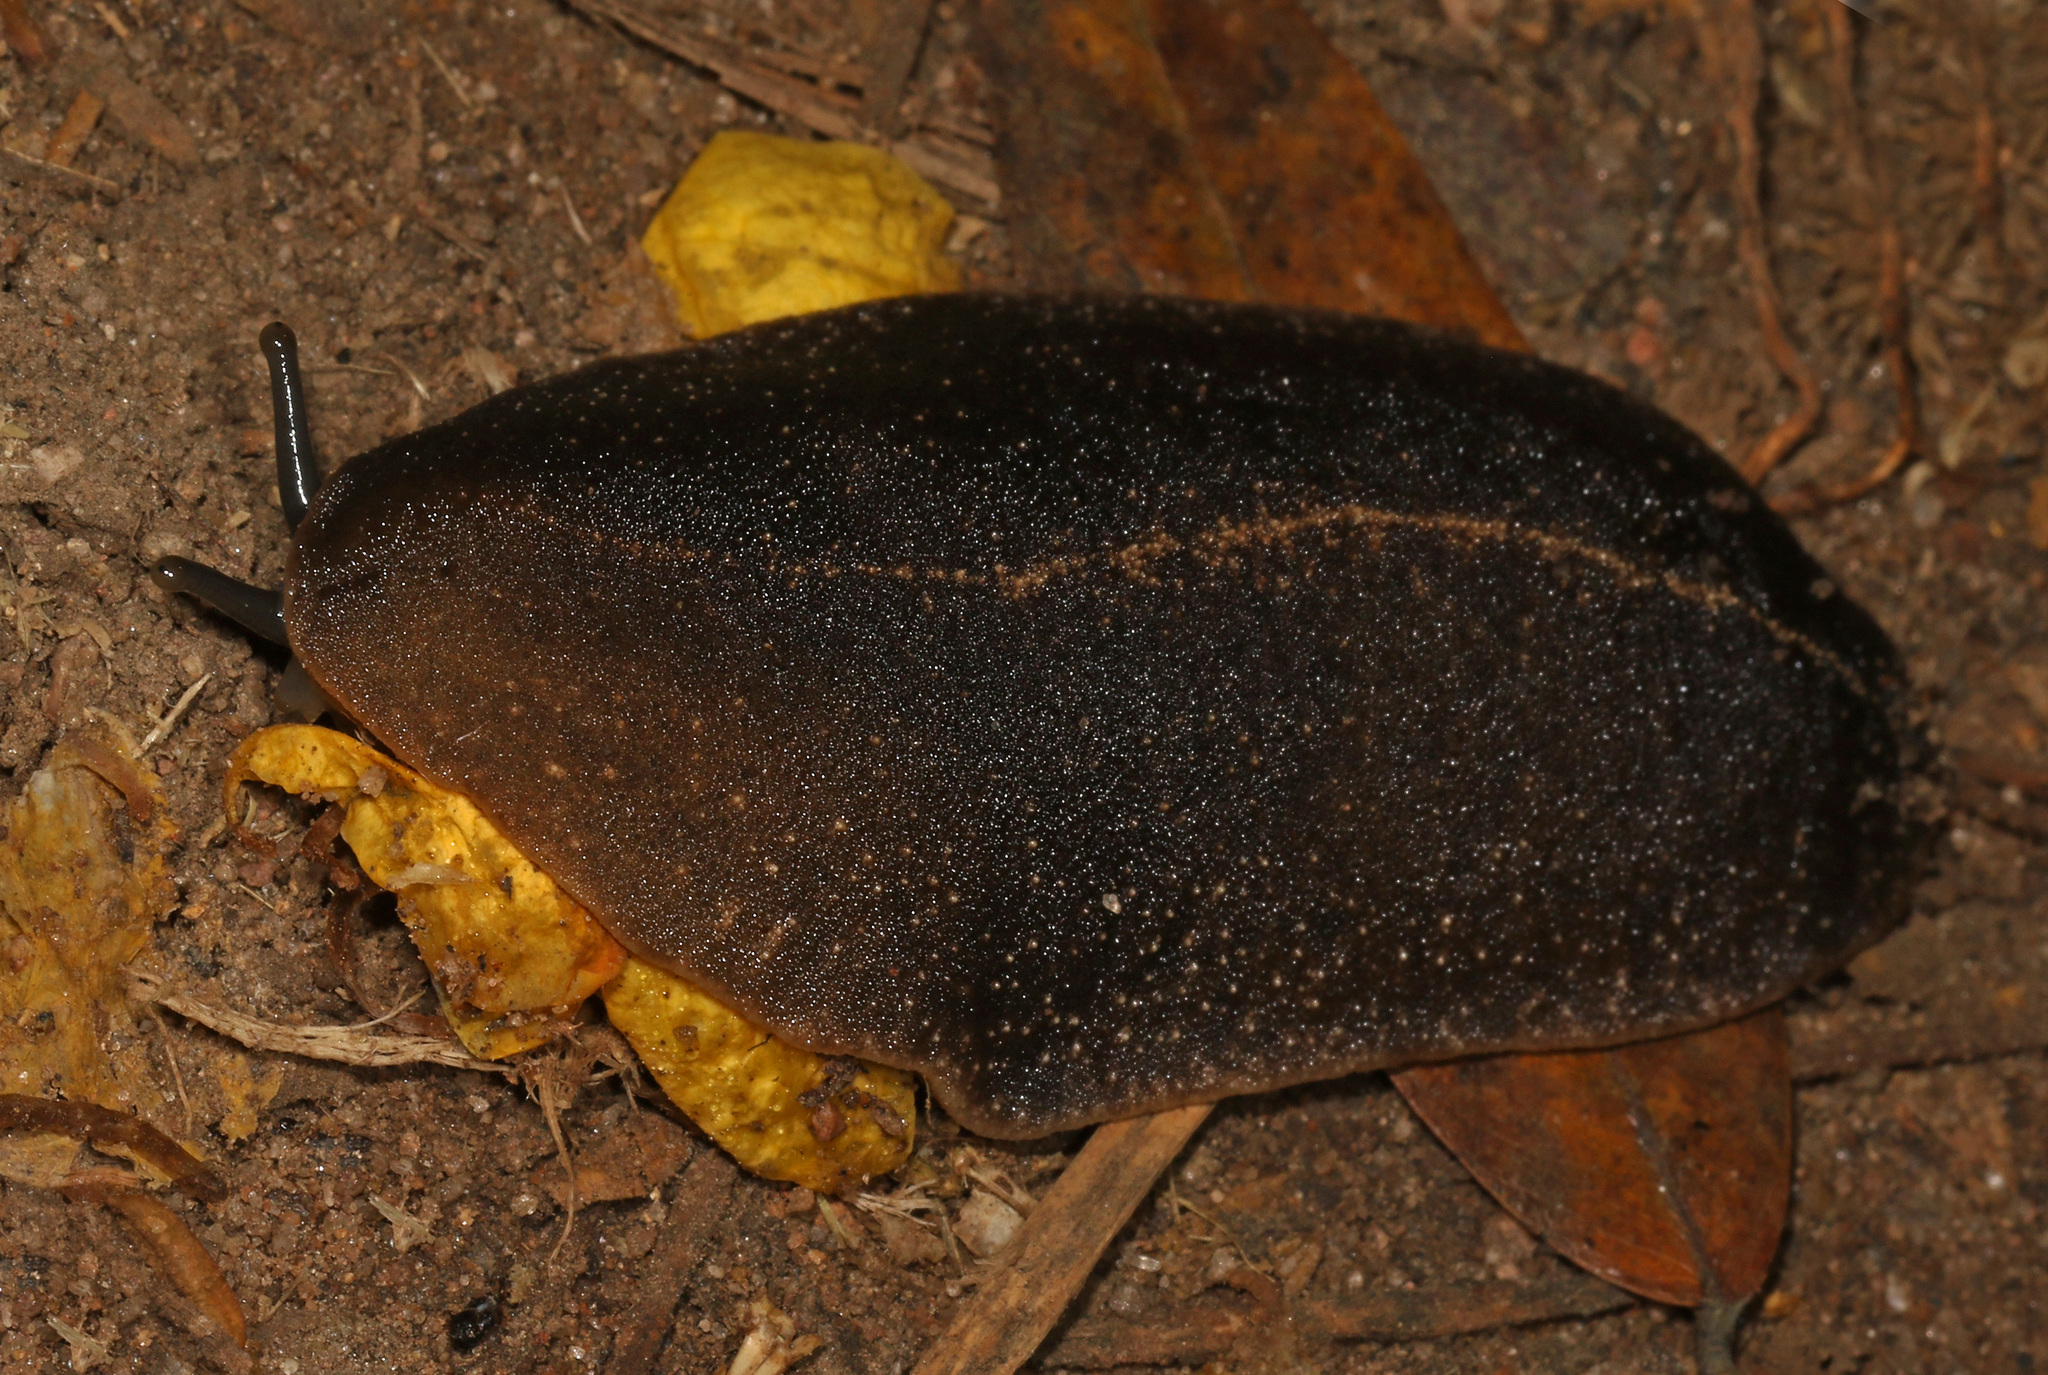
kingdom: Animalia
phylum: Mollusca
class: Gastropoda
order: Systellommatophora
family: Veronicellidae
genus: Laevicaulis
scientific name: Laevicaulis alte
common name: Tropical leatherleaf
